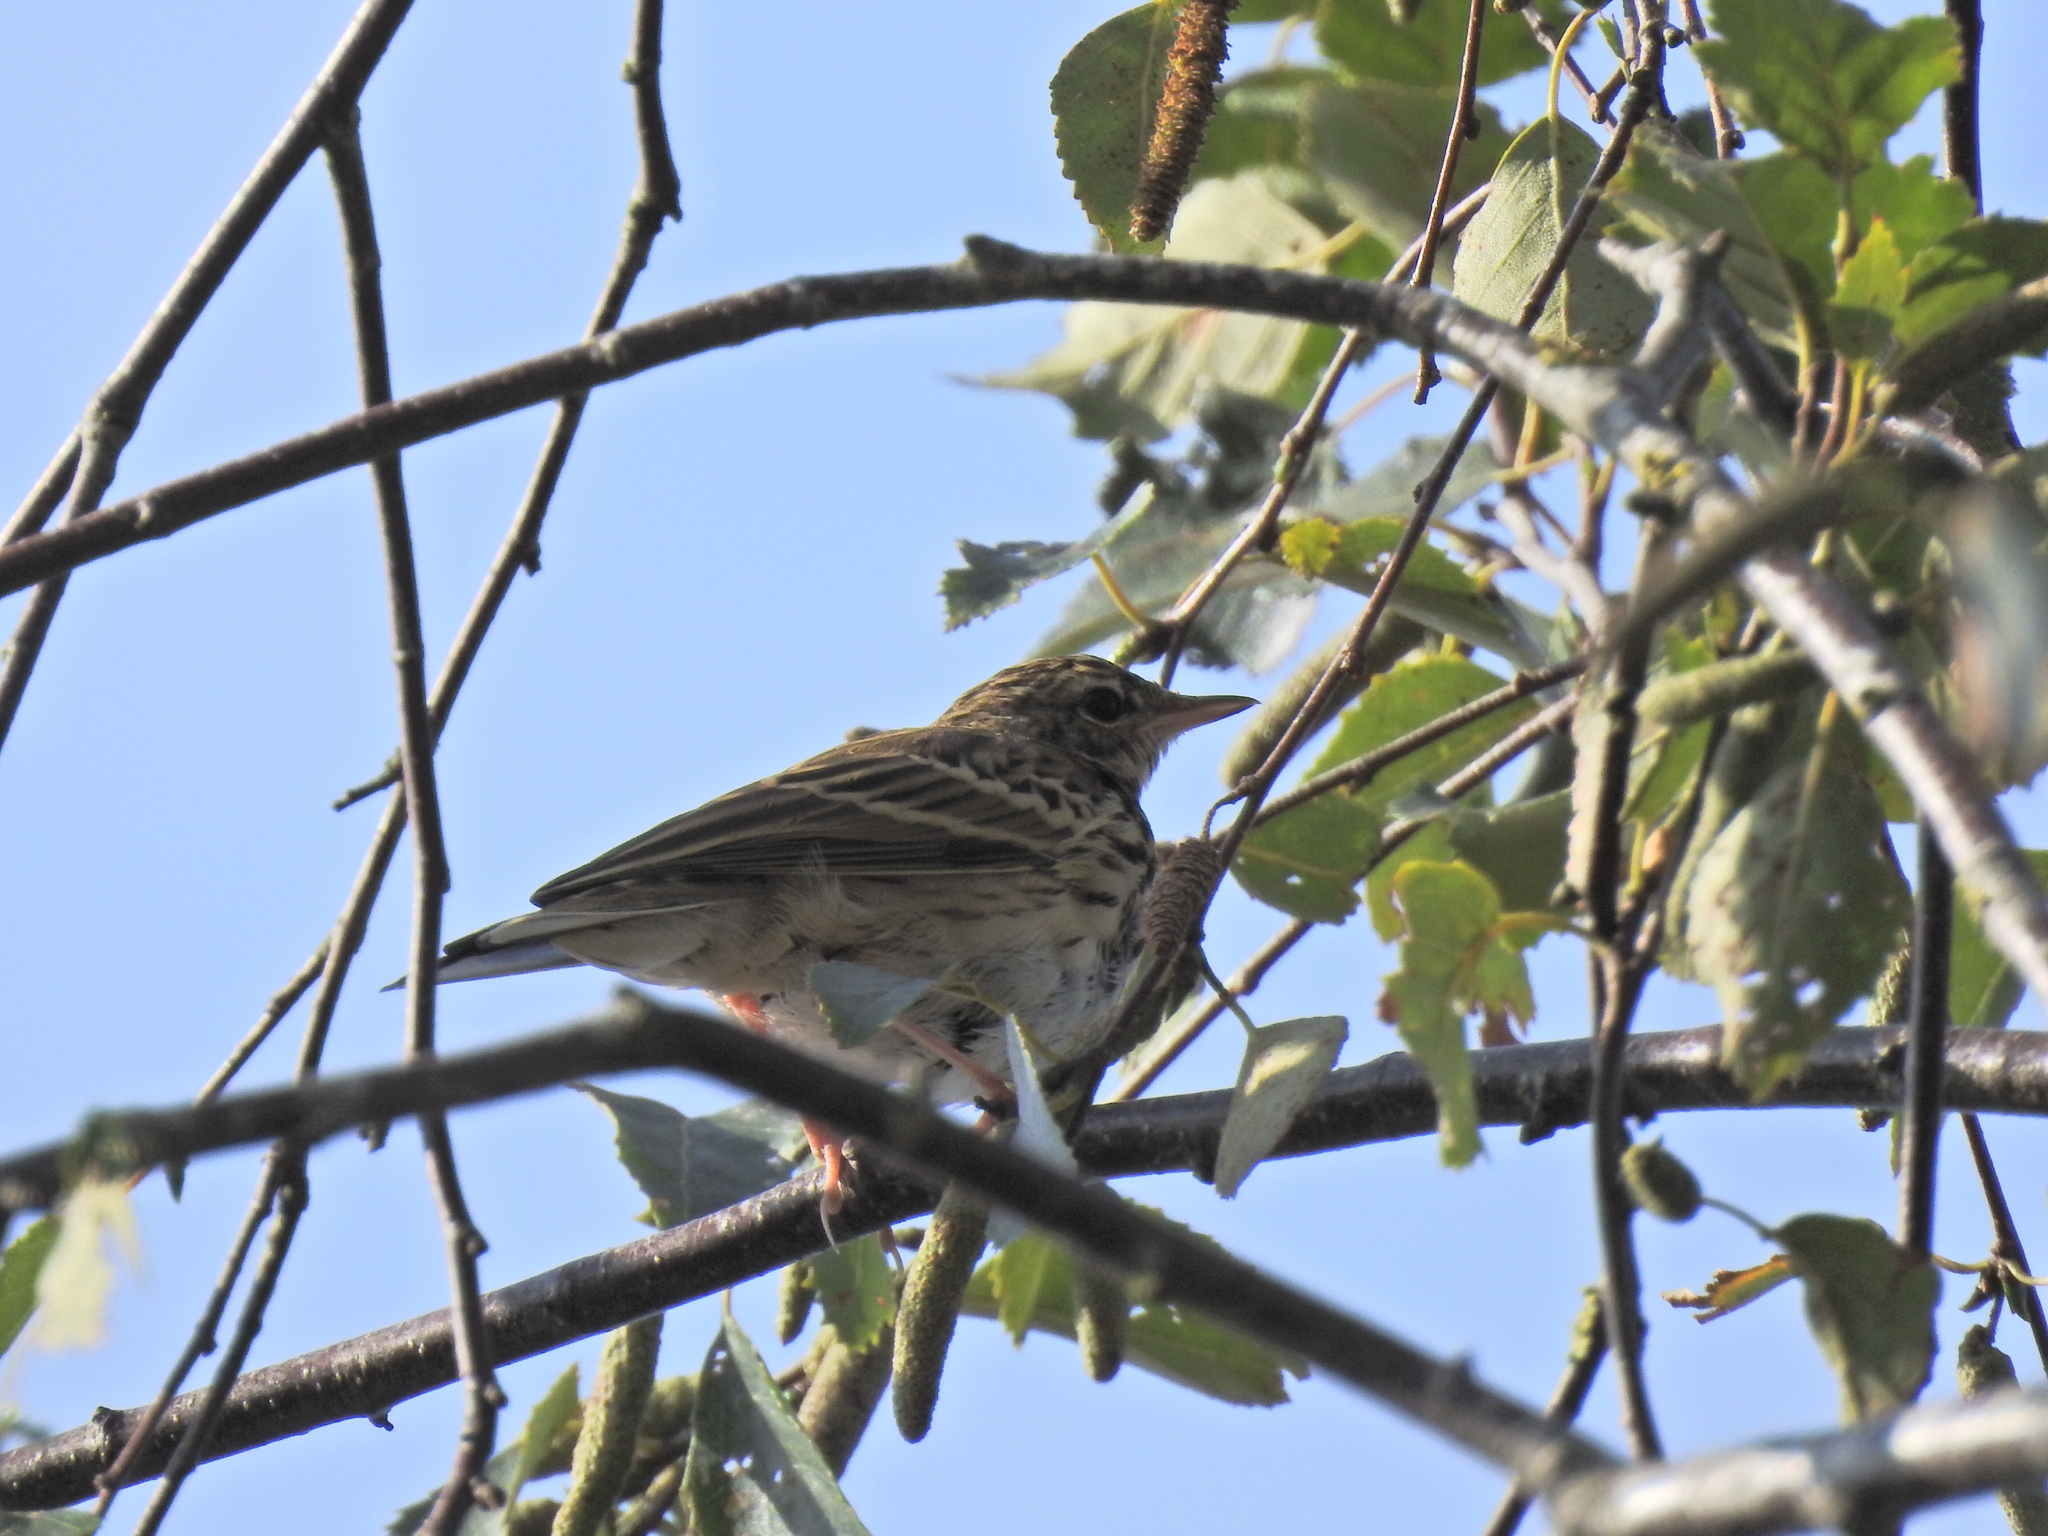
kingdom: Animalia
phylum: Chordata
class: Aves
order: Passeriformes
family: Motacillidae
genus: Anthus
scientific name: Anthus trivialis
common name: Tree pipit
